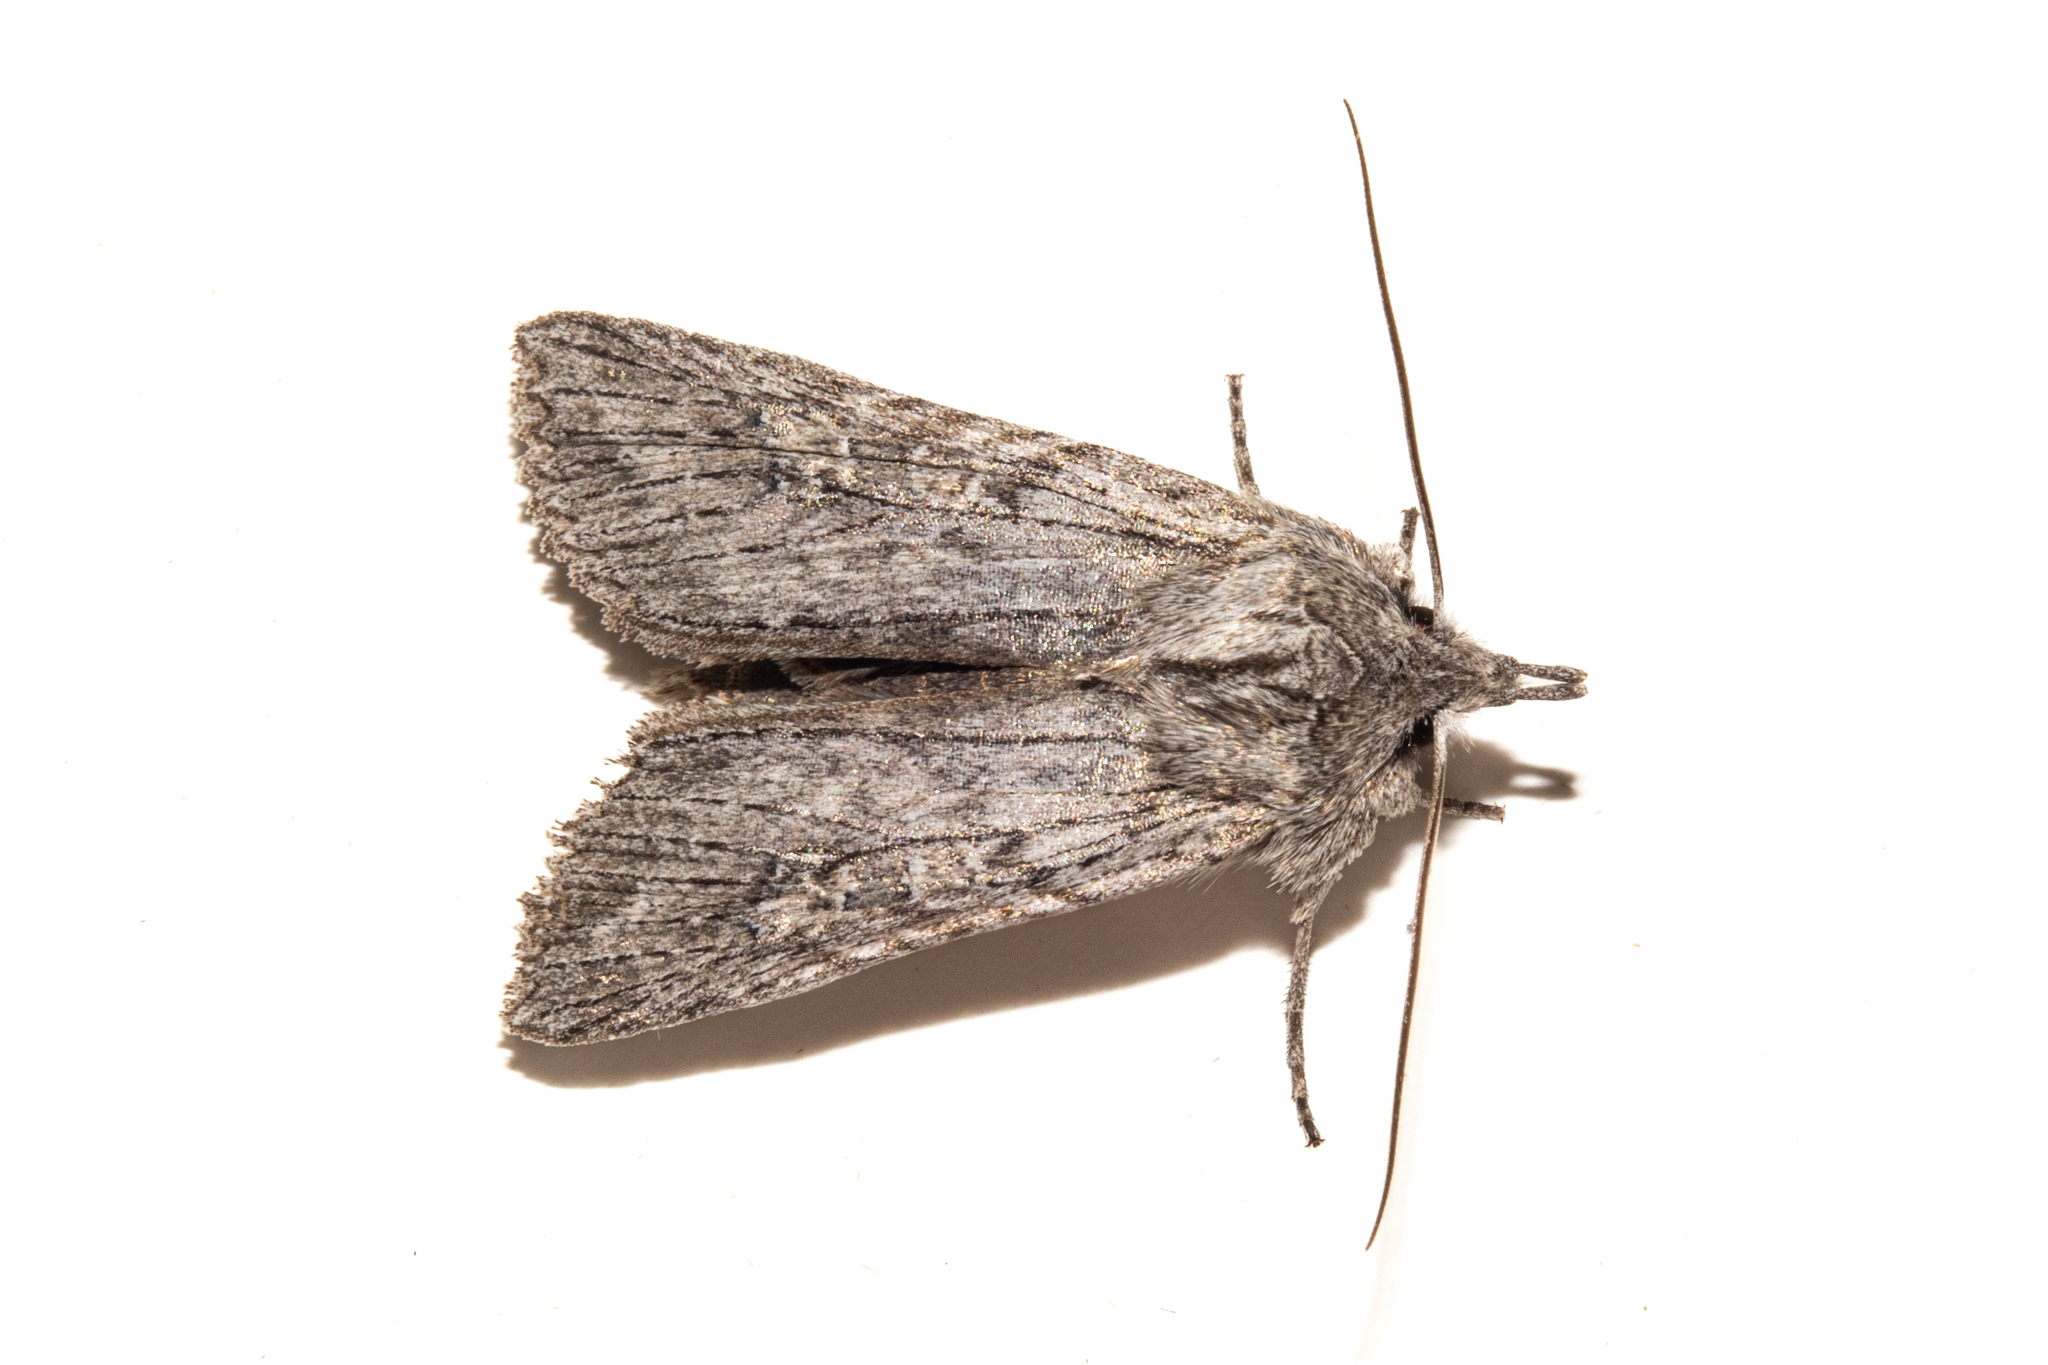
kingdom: Animalia
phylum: Arthropoda
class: Insecta
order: Lepidoptera
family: Noctuidae
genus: Physetica
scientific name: Physetica phricias
